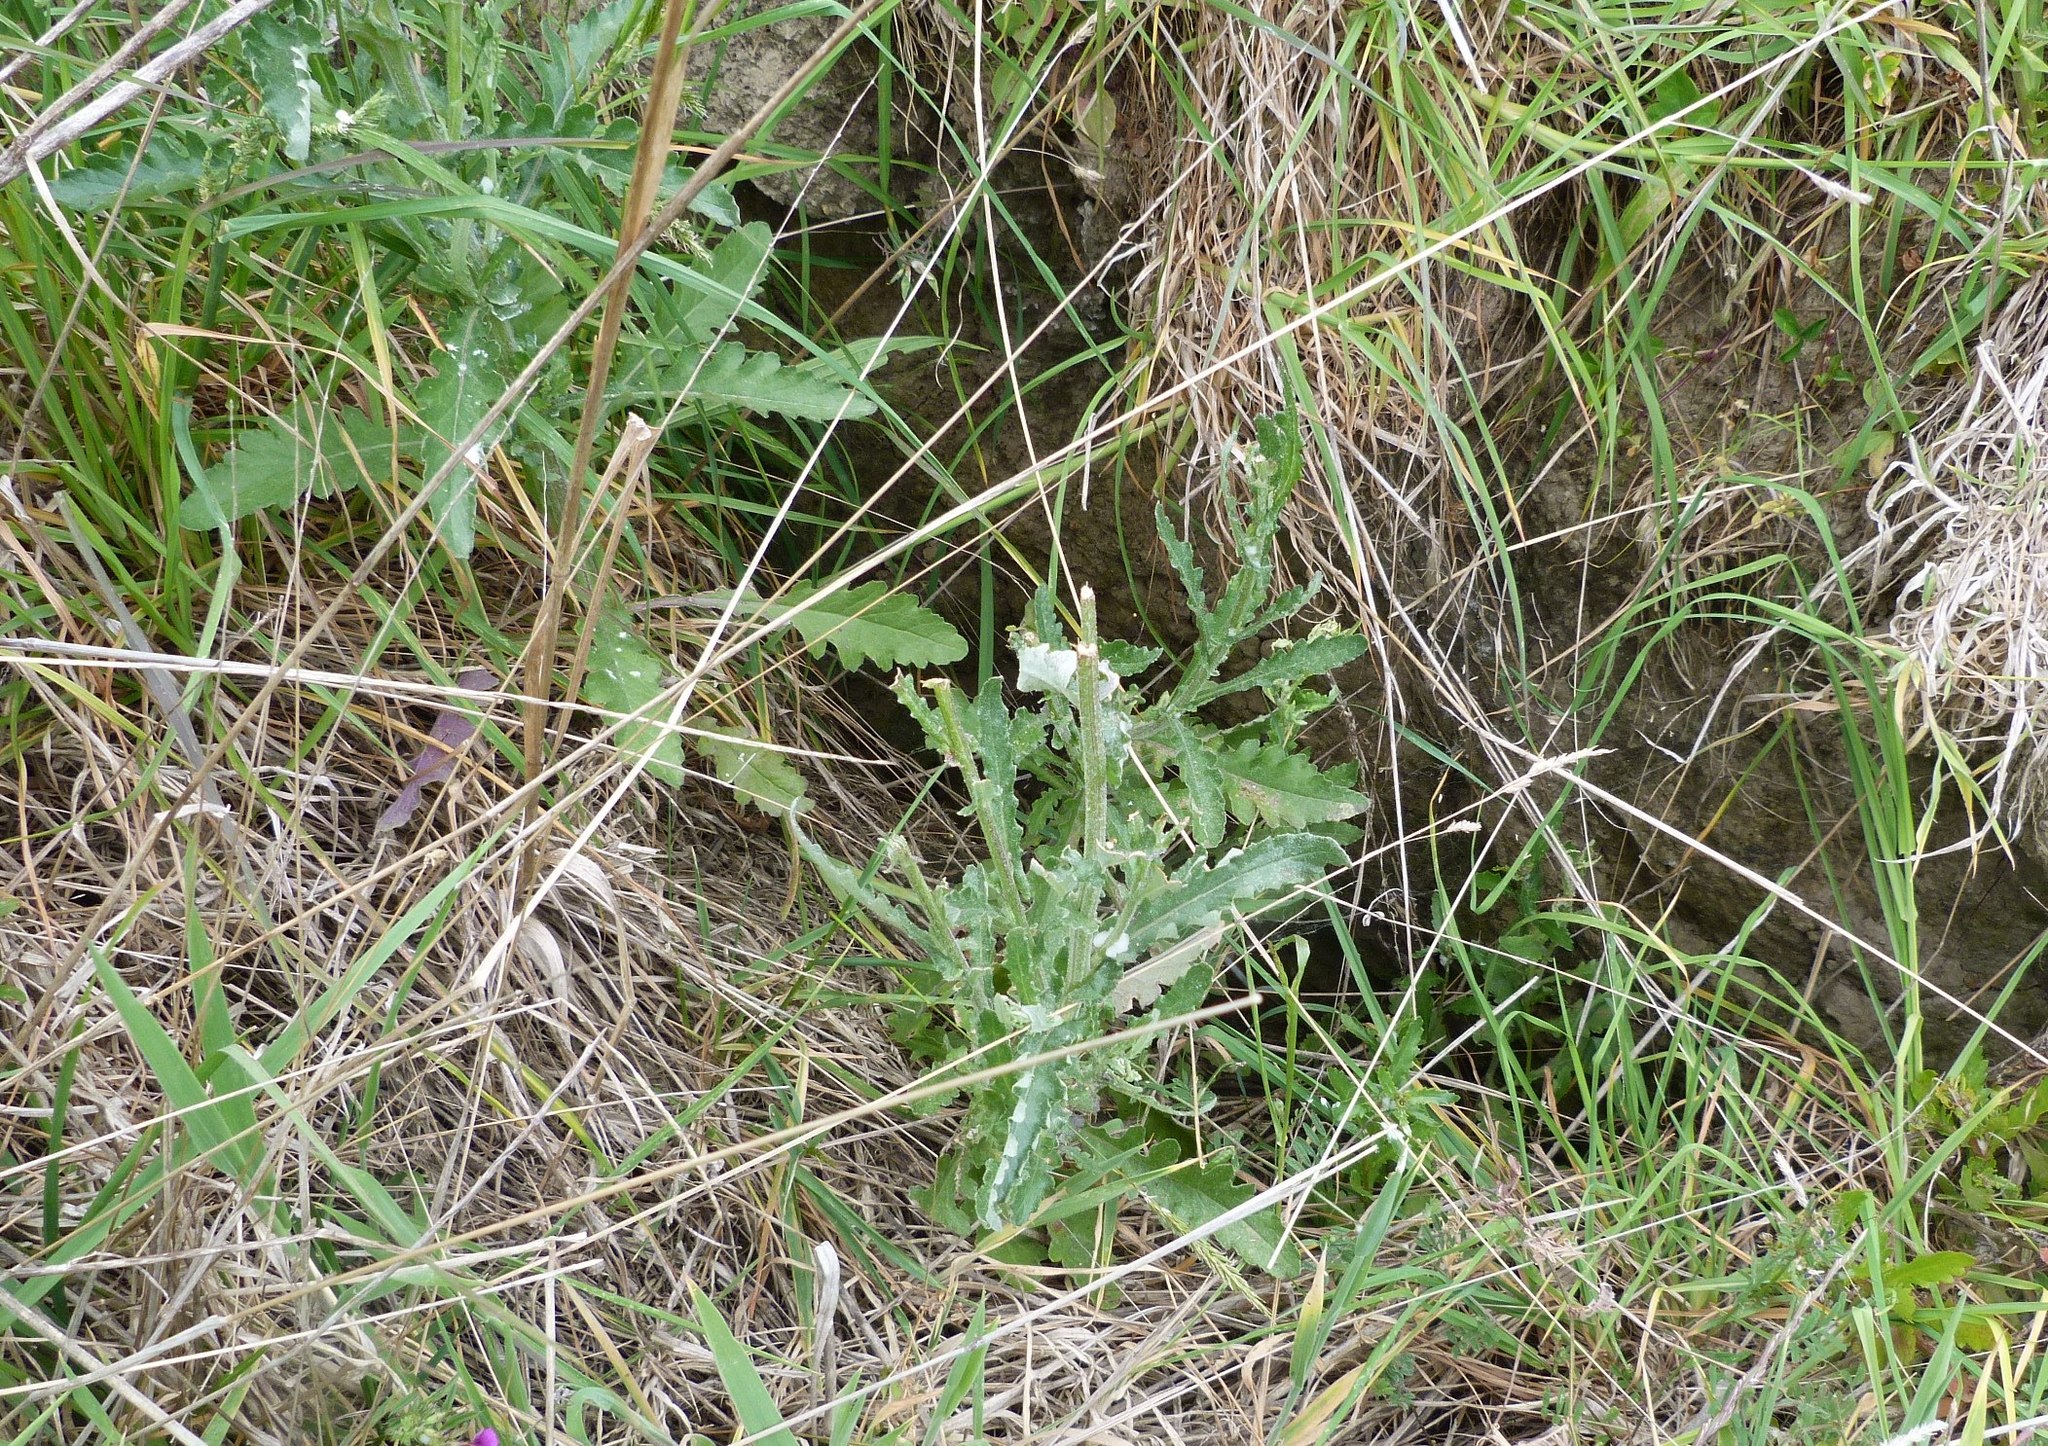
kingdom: Plantae
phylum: Tracheophyta
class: Magnoliopsida
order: Asterales
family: Asteraceae
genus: Senecio
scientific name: Senecio glomeratus
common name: Cutleaf burnweed
